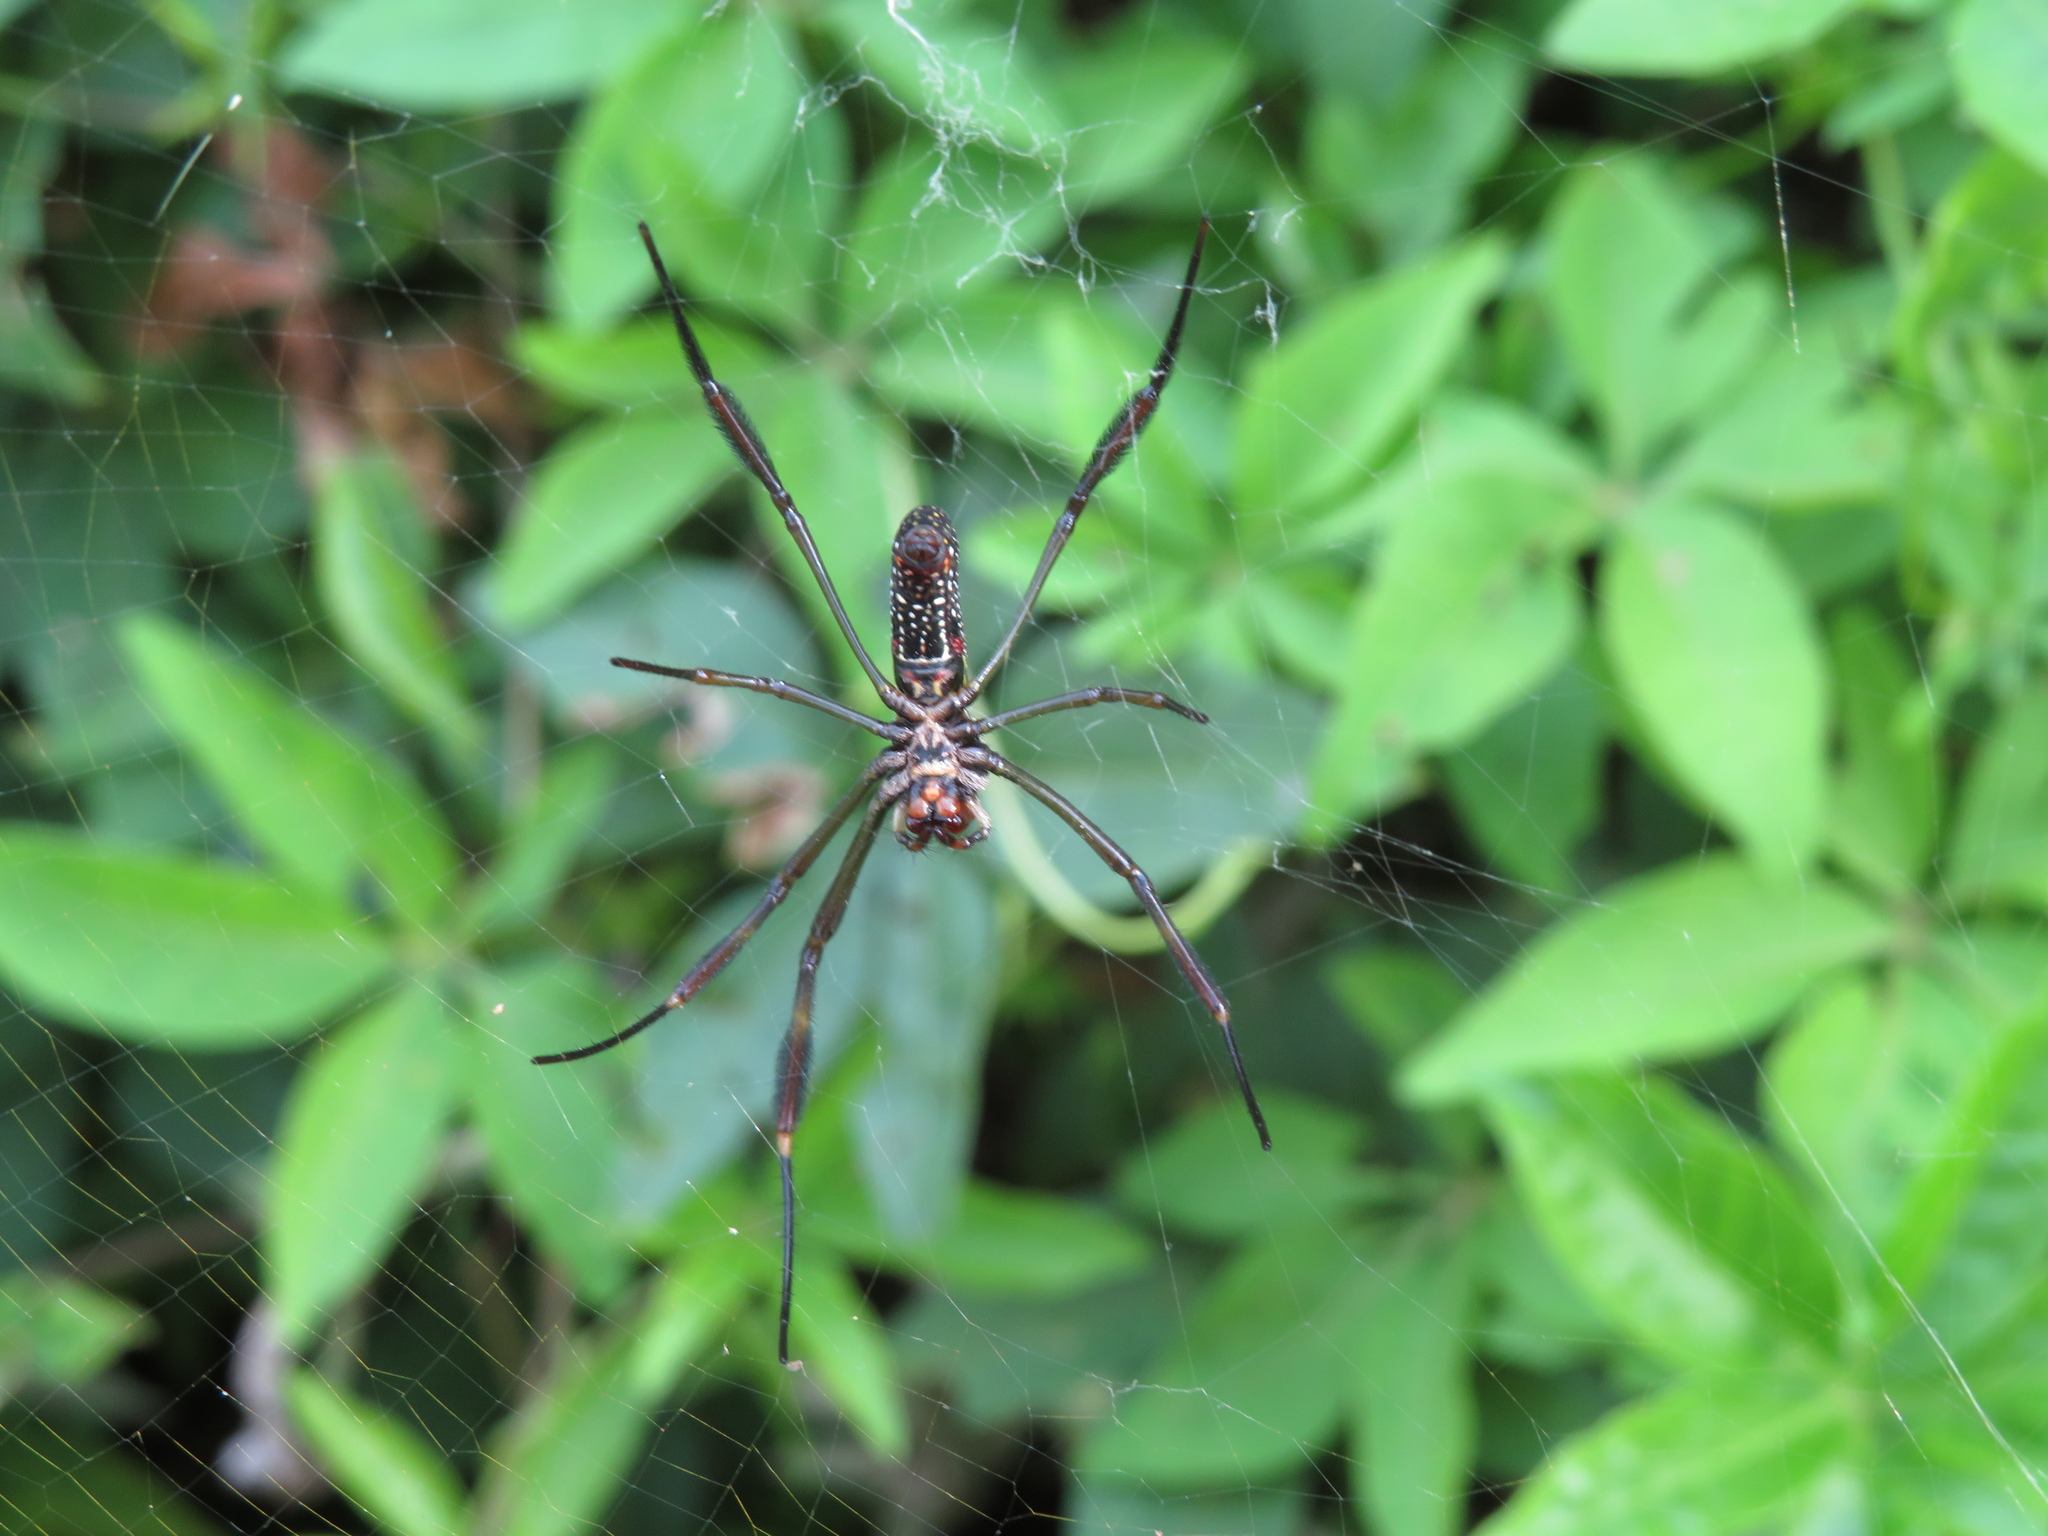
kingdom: Animalia
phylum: Arthropoda
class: Arachnida
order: Araneae
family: Araneidae
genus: Trichonephila
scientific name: Trichonephila clavipes
